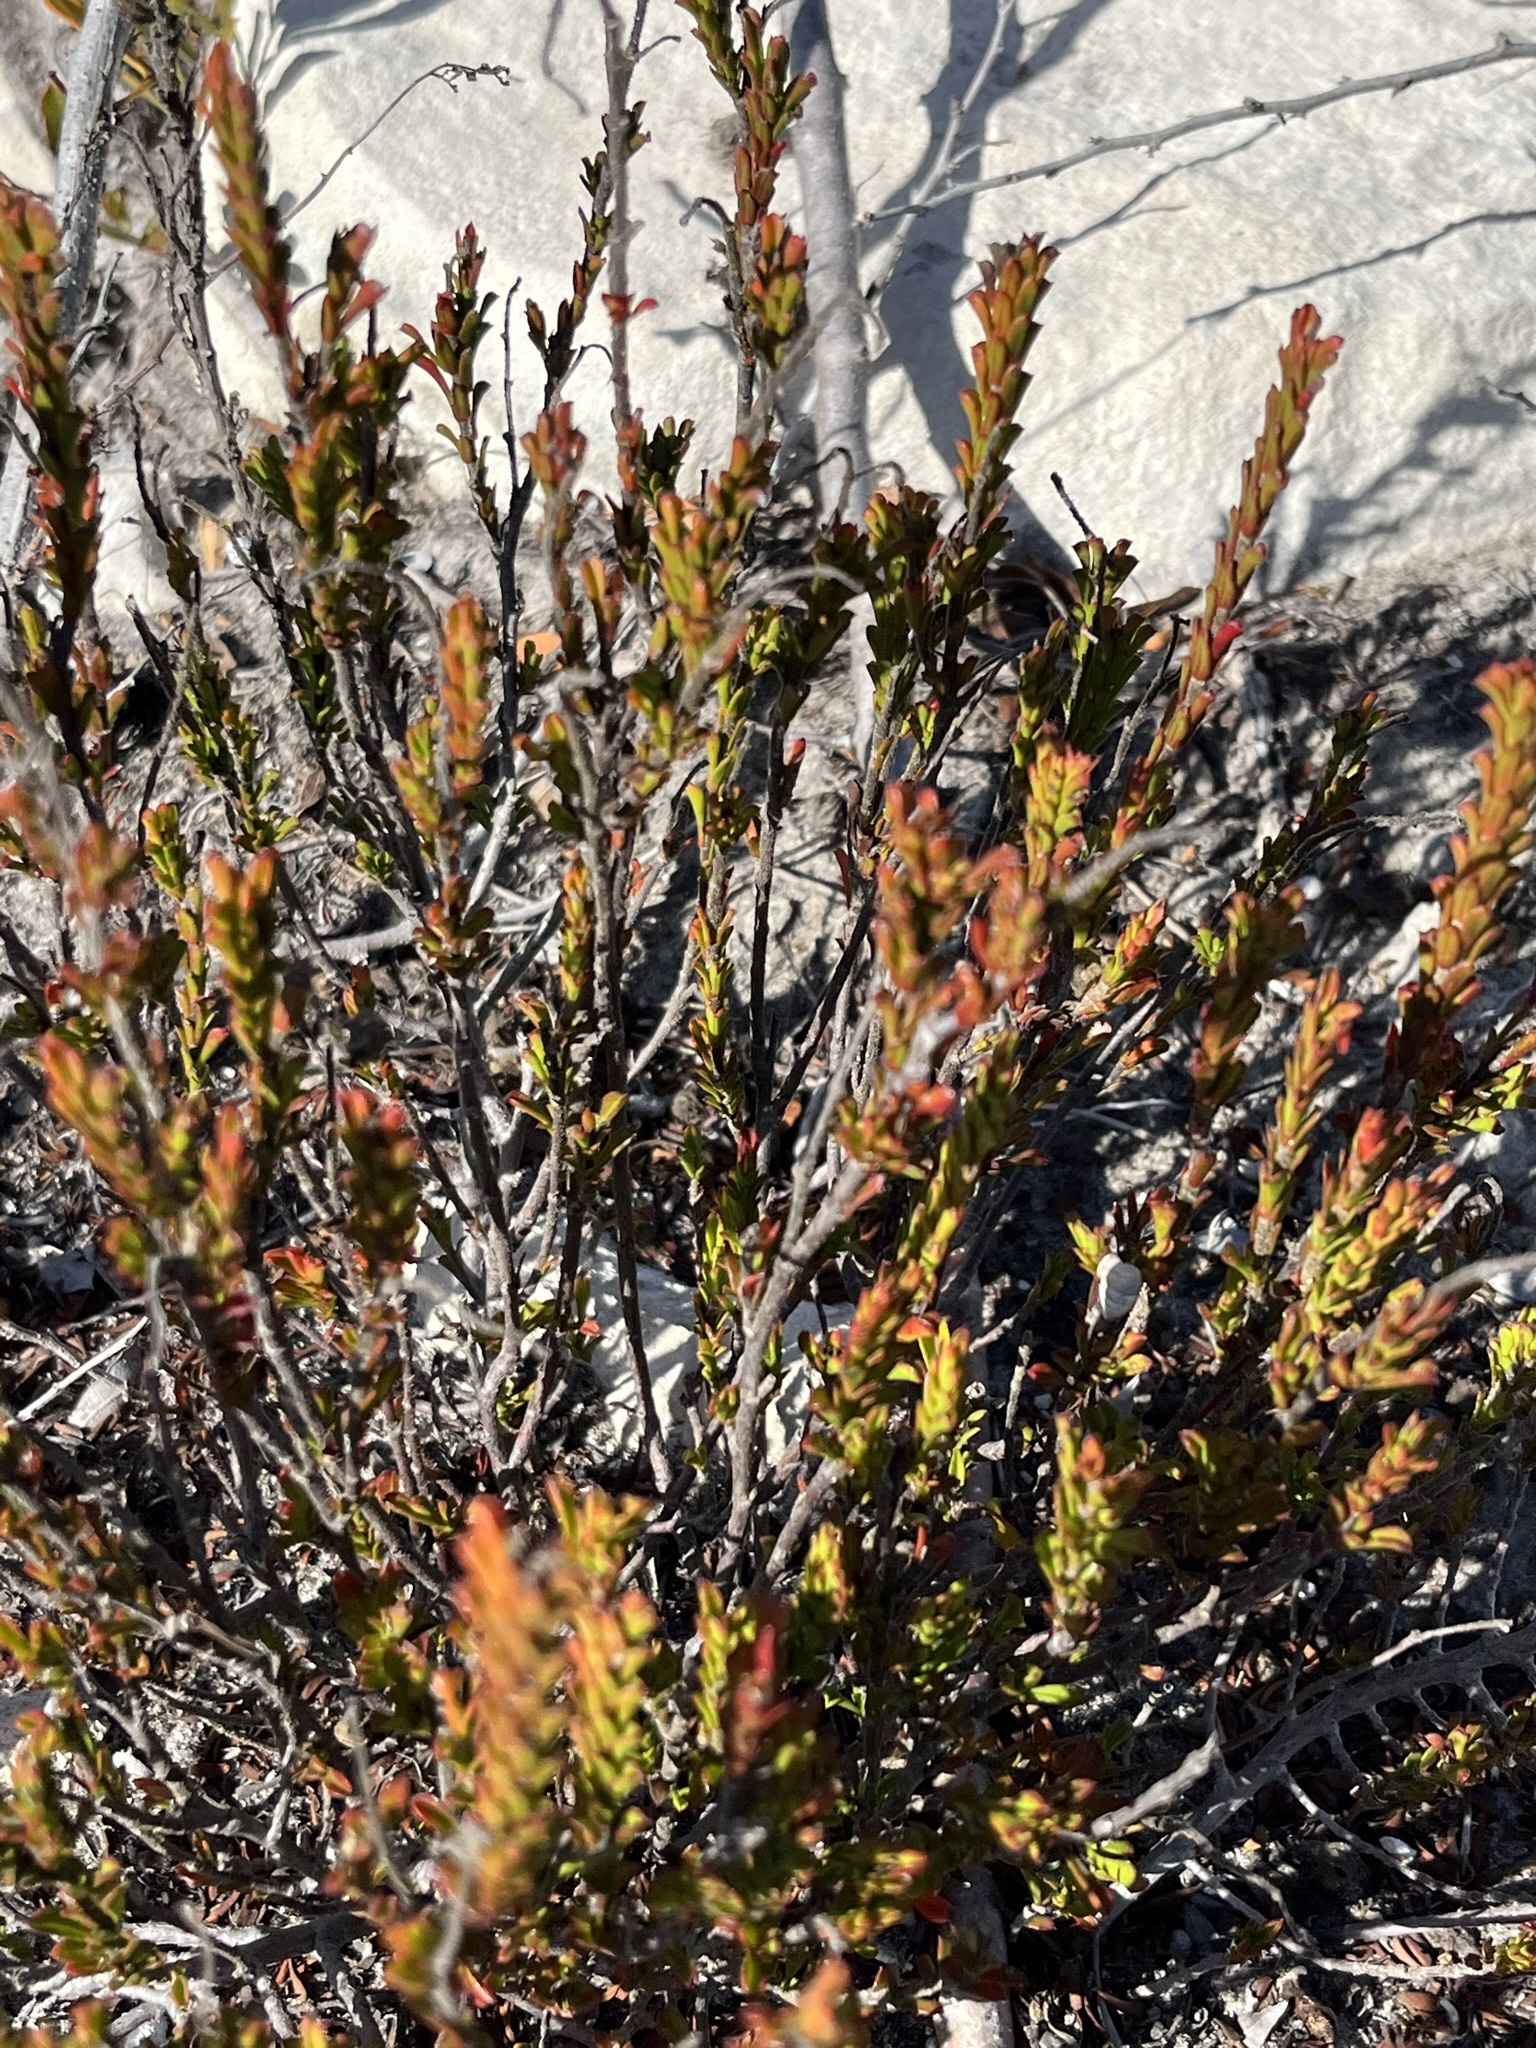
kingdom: Plantae
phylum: Tracheophyta
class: Magnoliopsida
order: Malvales
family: Malvaceae
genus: Hermannia
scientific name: Hermannia concinnifolia
